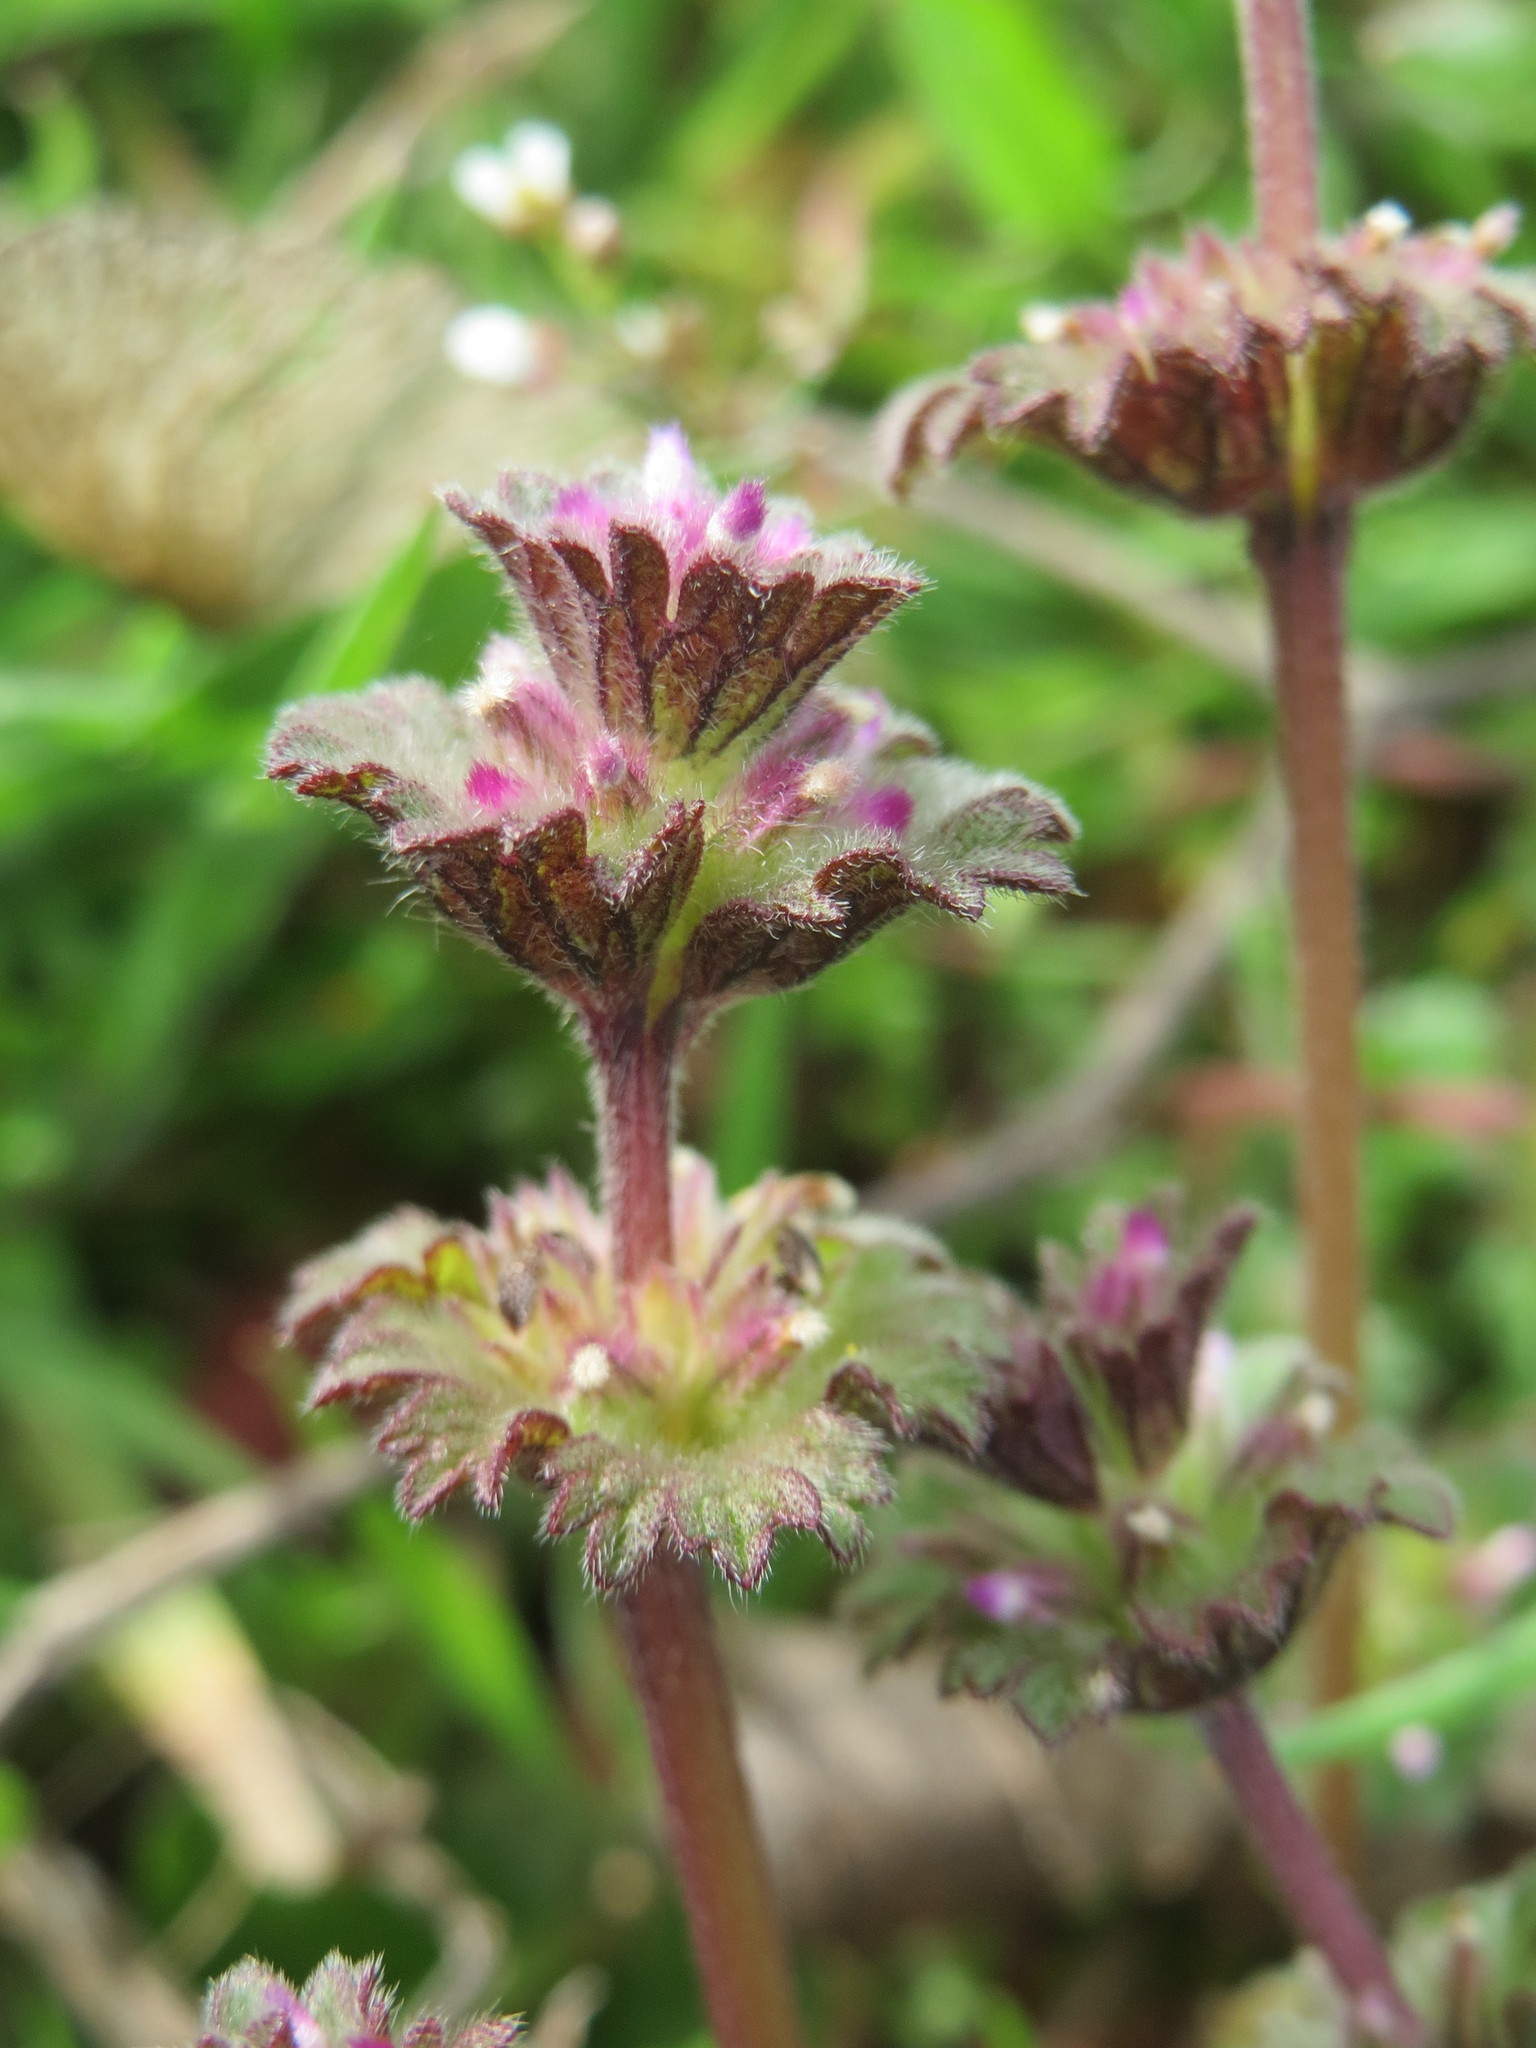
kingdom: Plantae
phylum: Tracheophyta
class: Magnoliopsida
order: Lamiales
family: Lamiaceae
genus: Lamium
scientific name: Lamium amplexicaule
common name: Henbit dead-nettle
